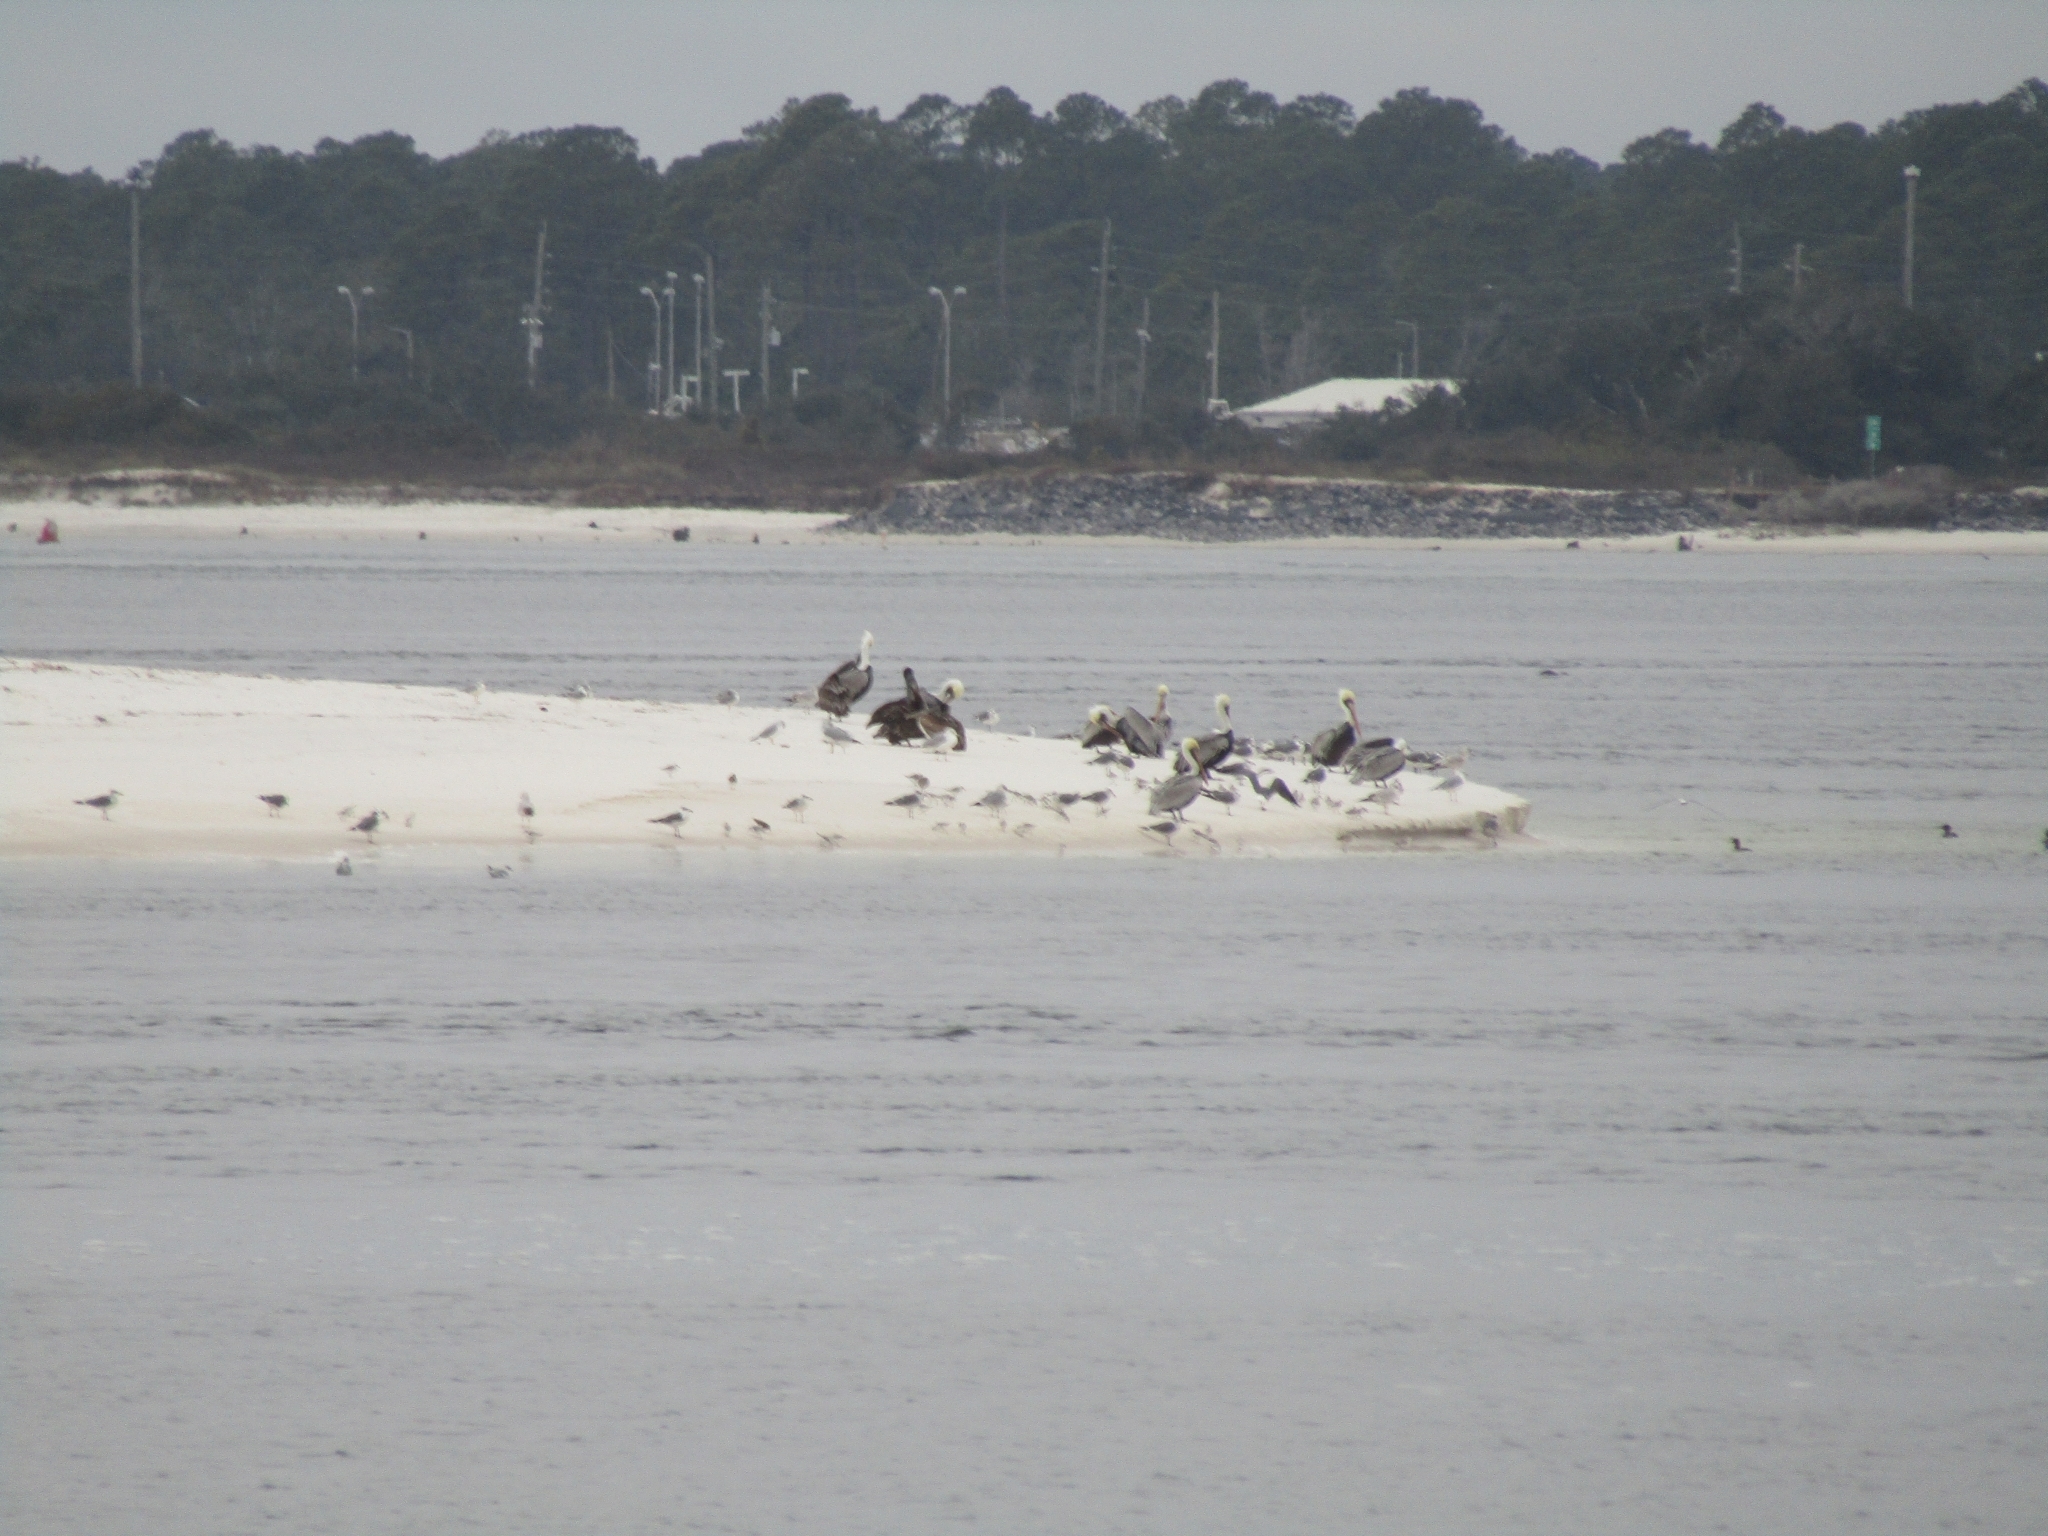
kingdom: Animalia
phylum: Chordata
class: Aves
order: Pelecaniformes
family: Pelecanidae
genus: Pelecanus
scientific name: Pelecanus occidentalis
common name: Brown pelican
